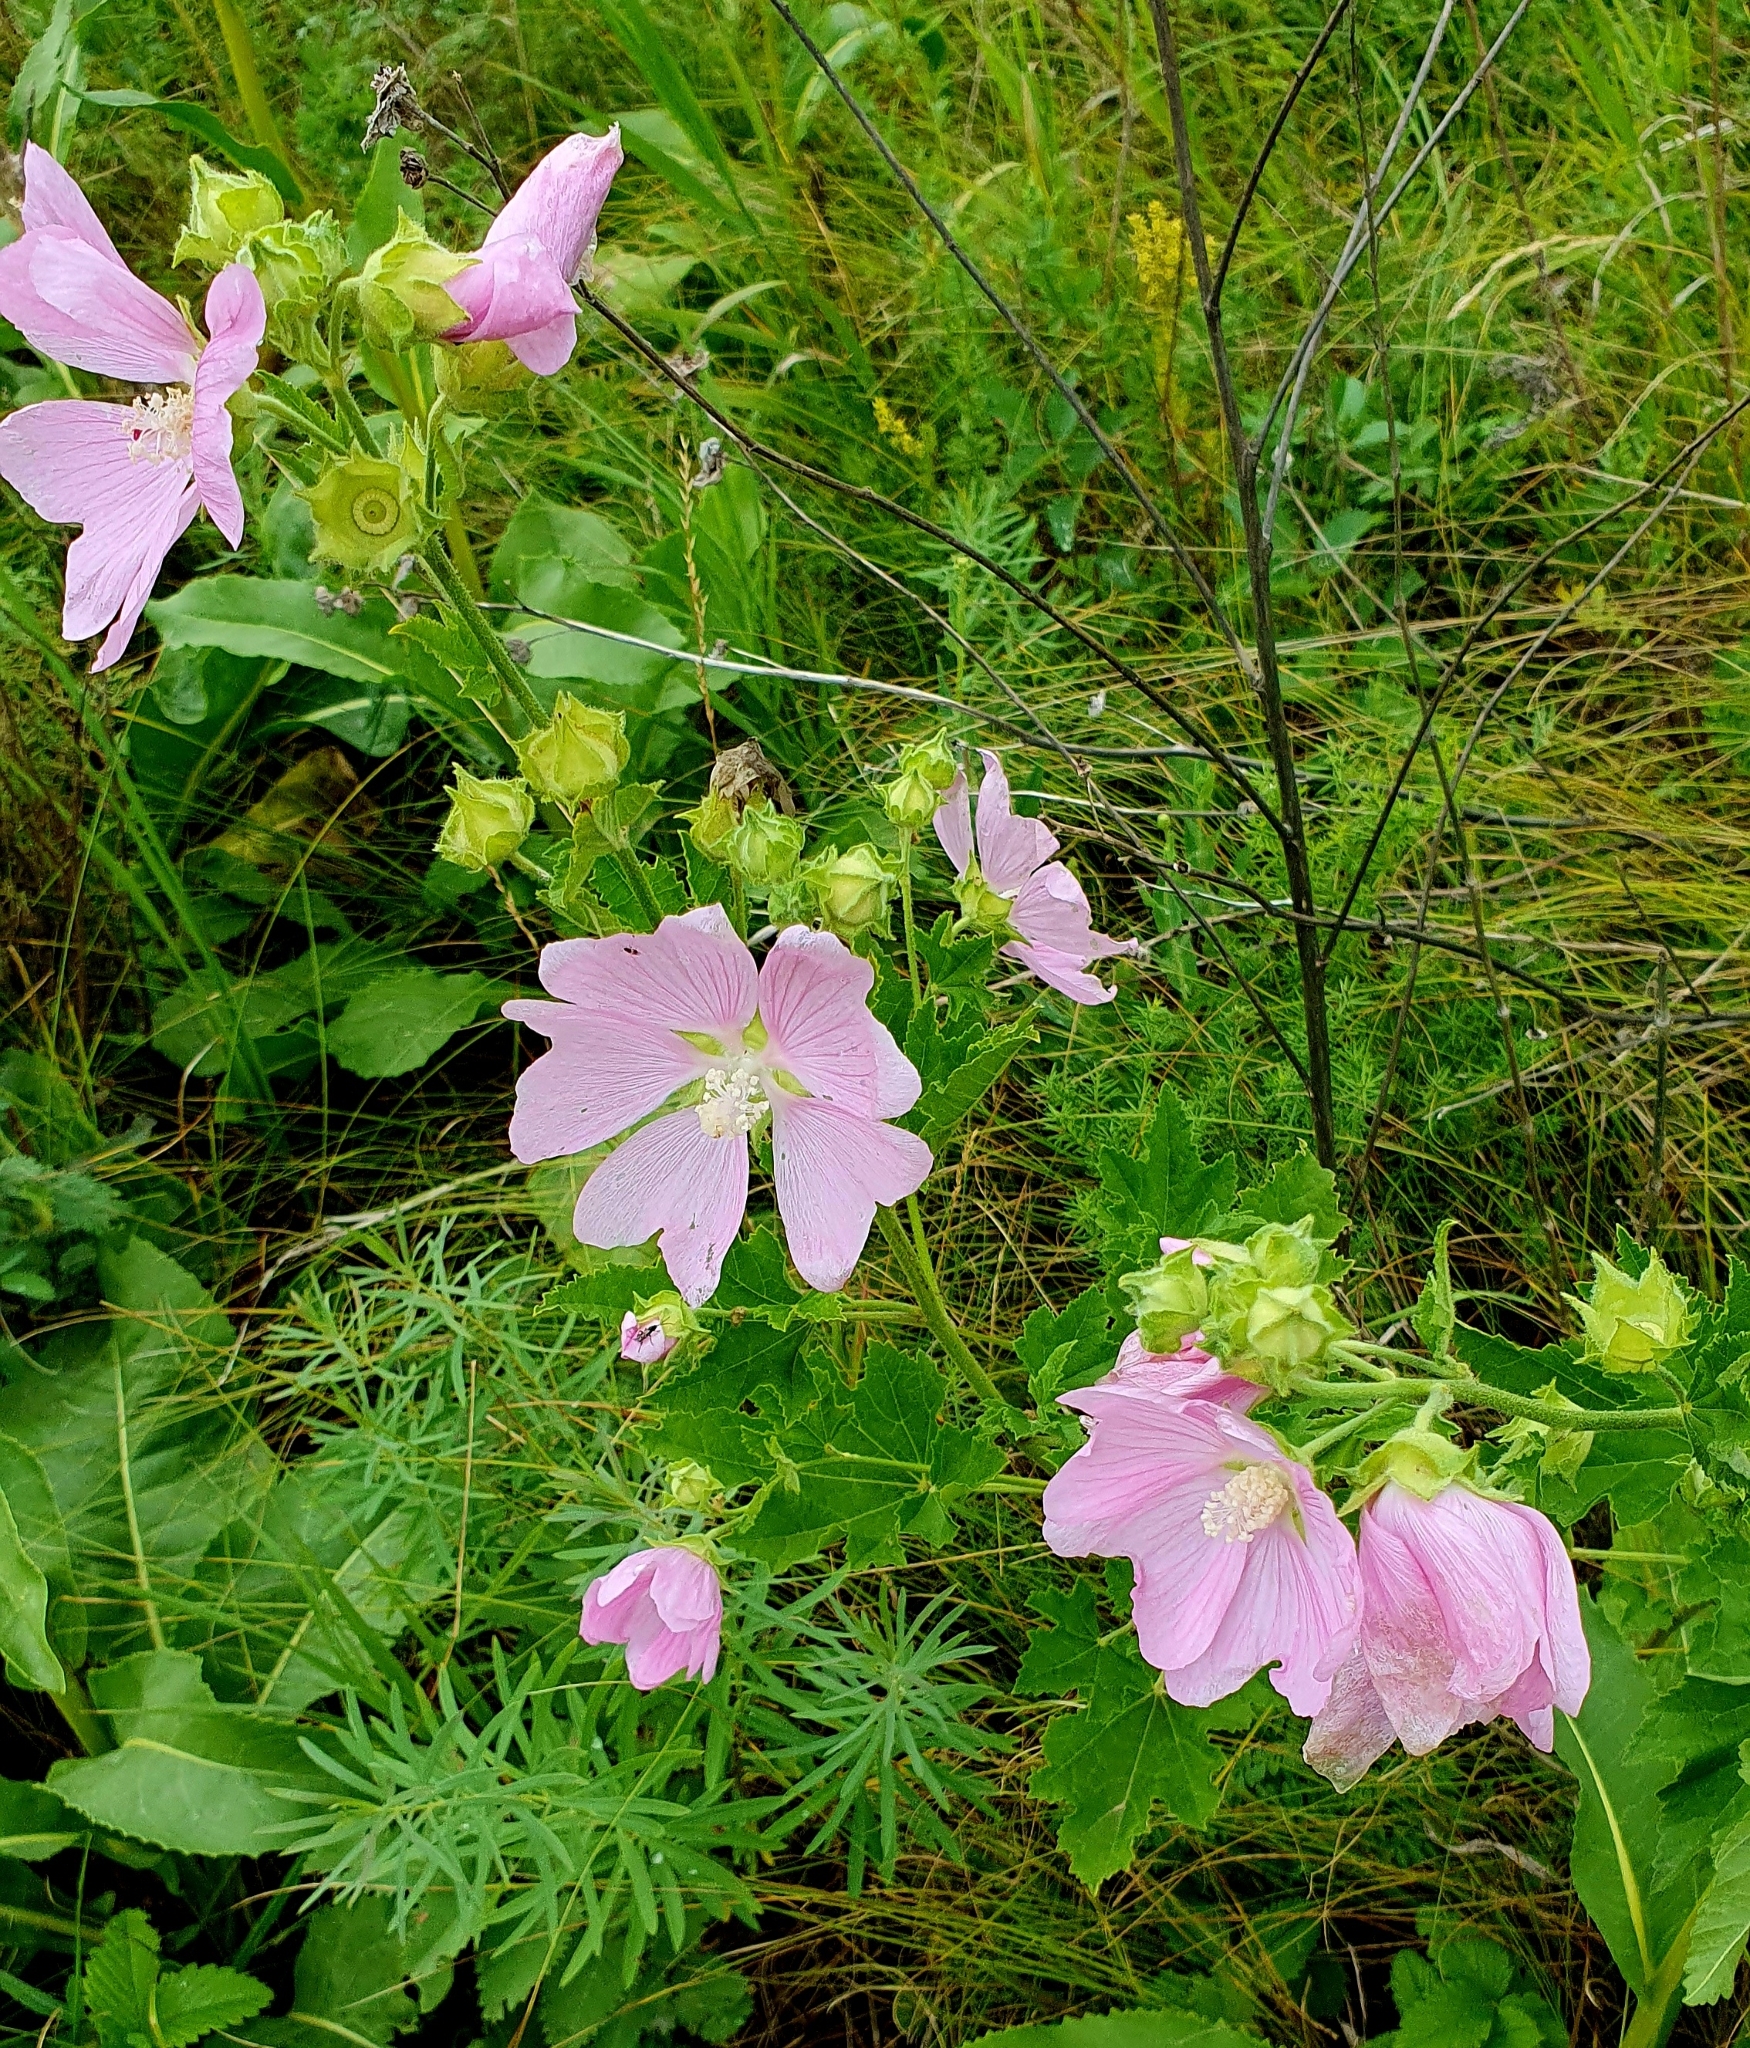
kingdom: Plantae
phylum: Tracheophyta
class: Magnoliopsida
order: Malvales
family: Malvaceae
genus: Malva
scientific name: Malva thuringiaca
